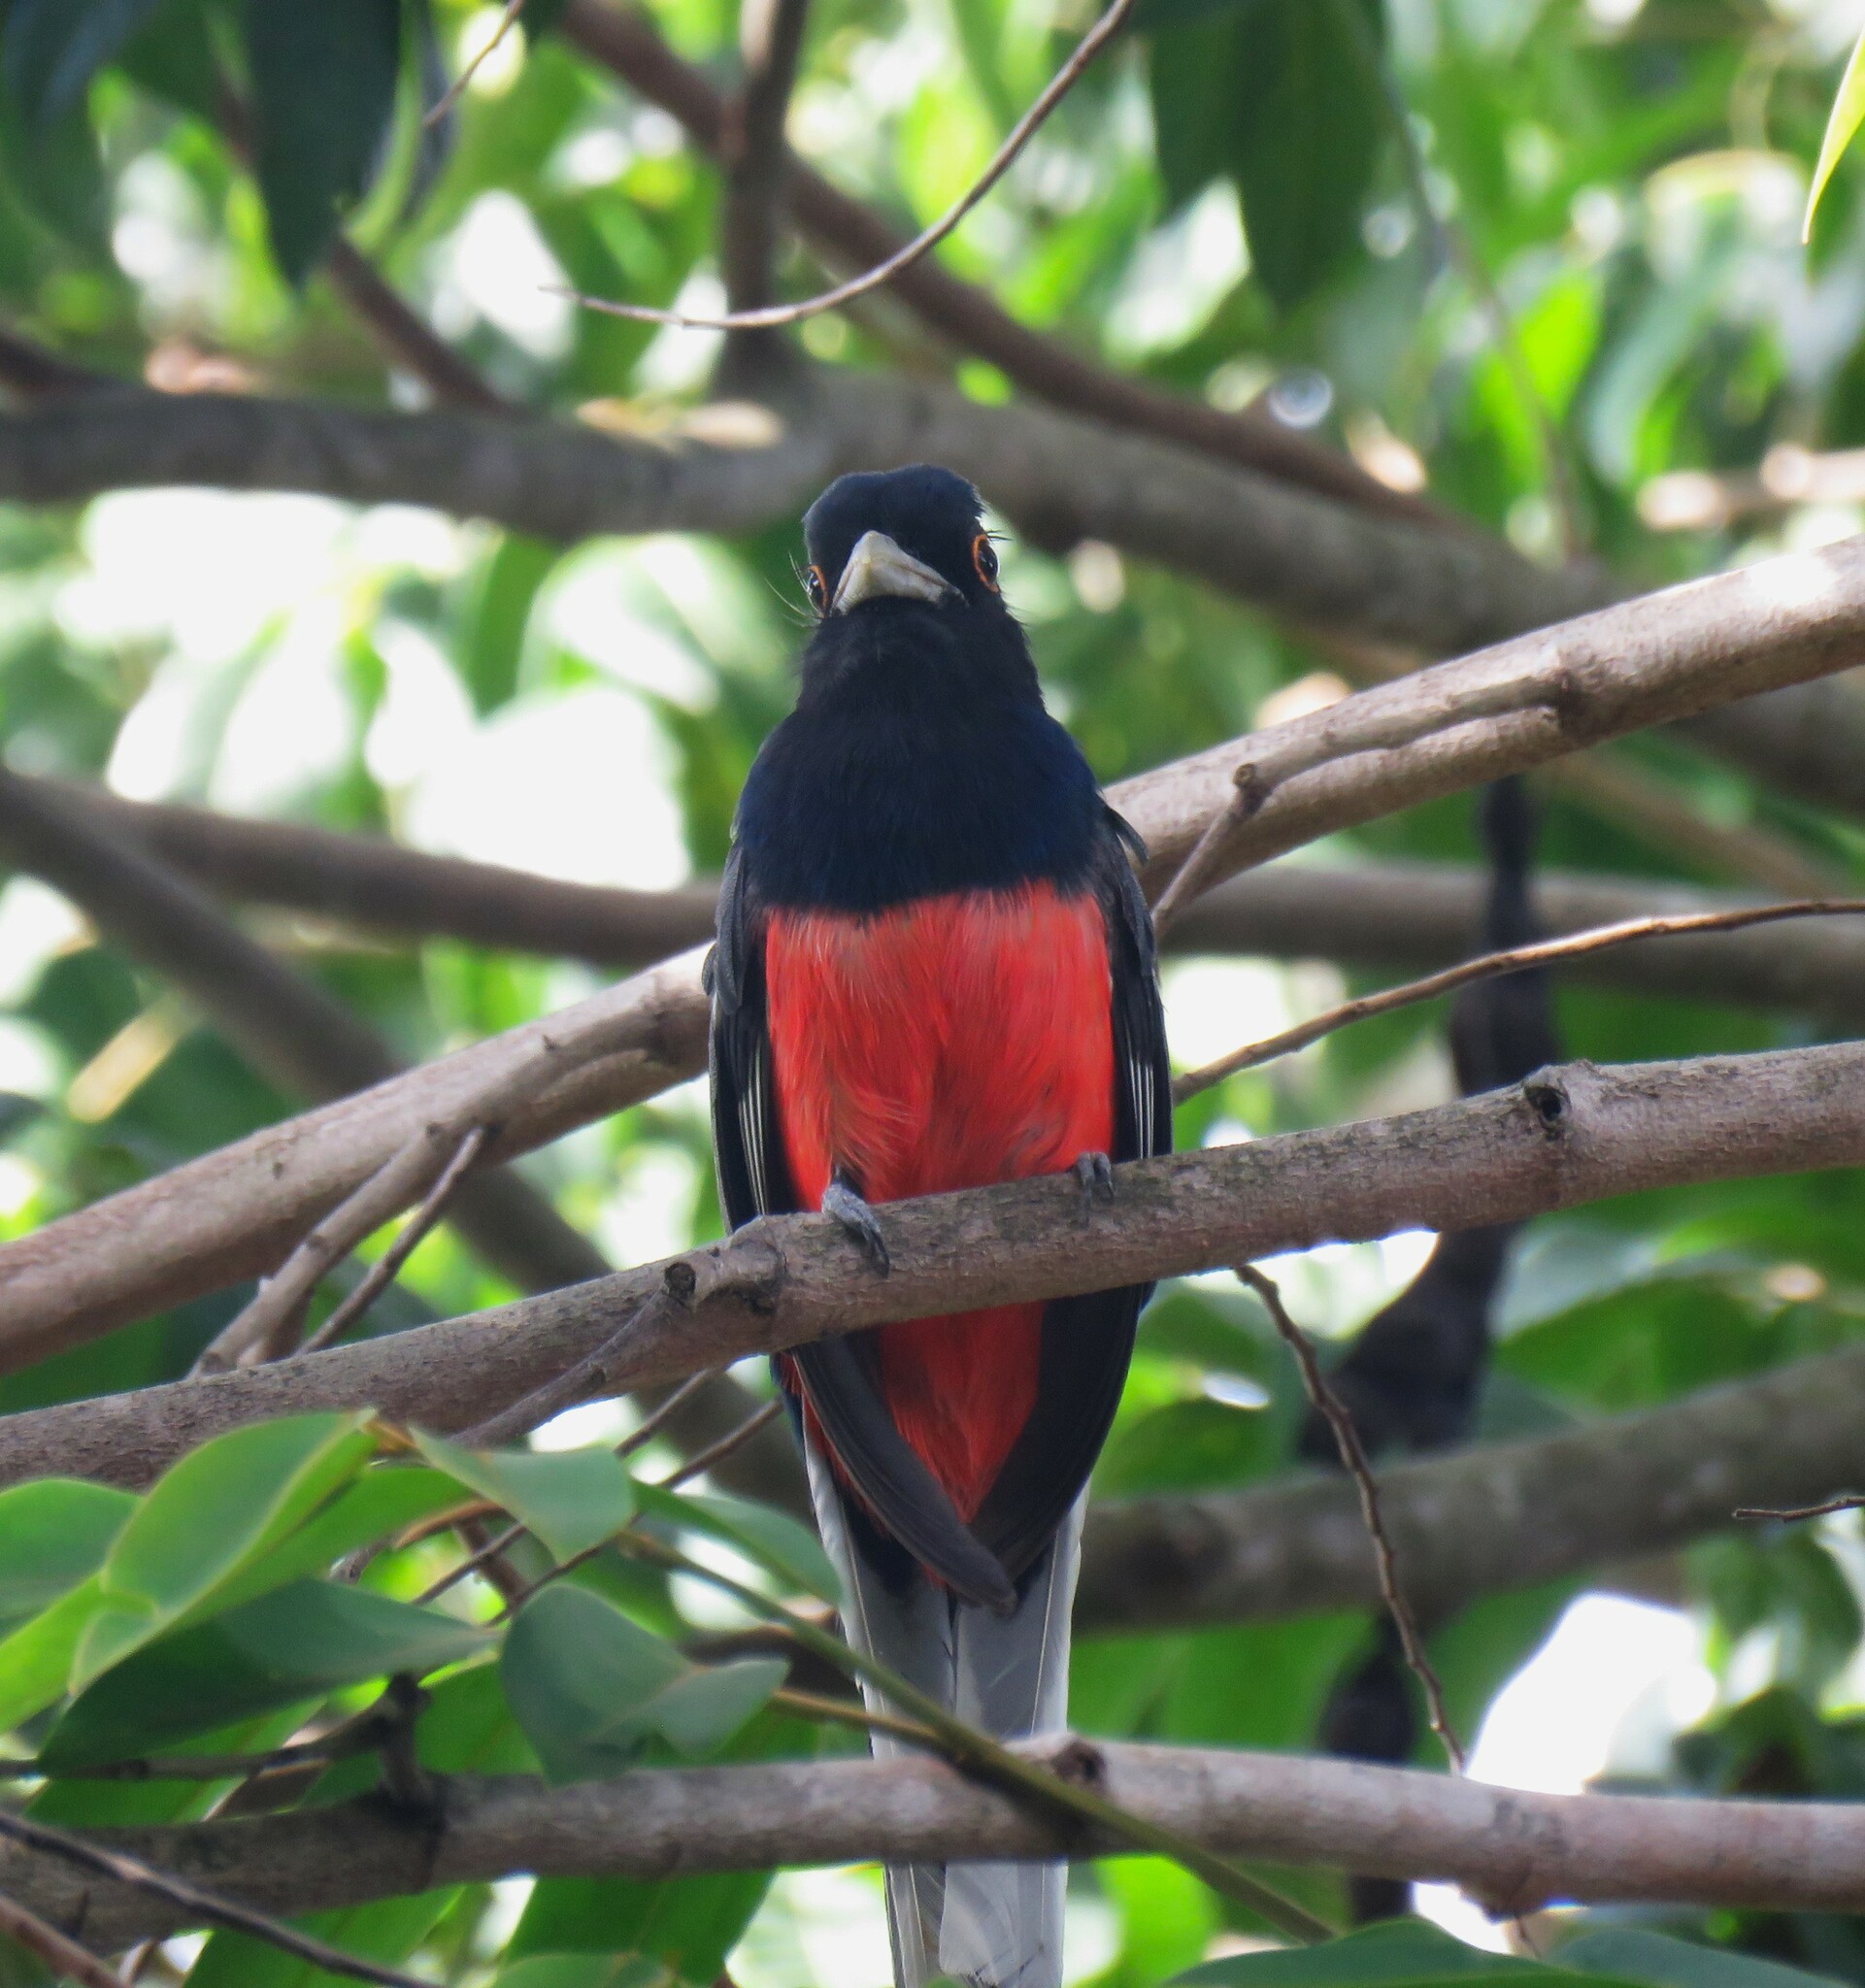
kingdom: Animalia
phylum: Chordata
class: Aves
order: Trogoniformes
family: Trogonidae
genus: Trogon
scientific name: Trogon surrucura
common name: Surucua trogon
